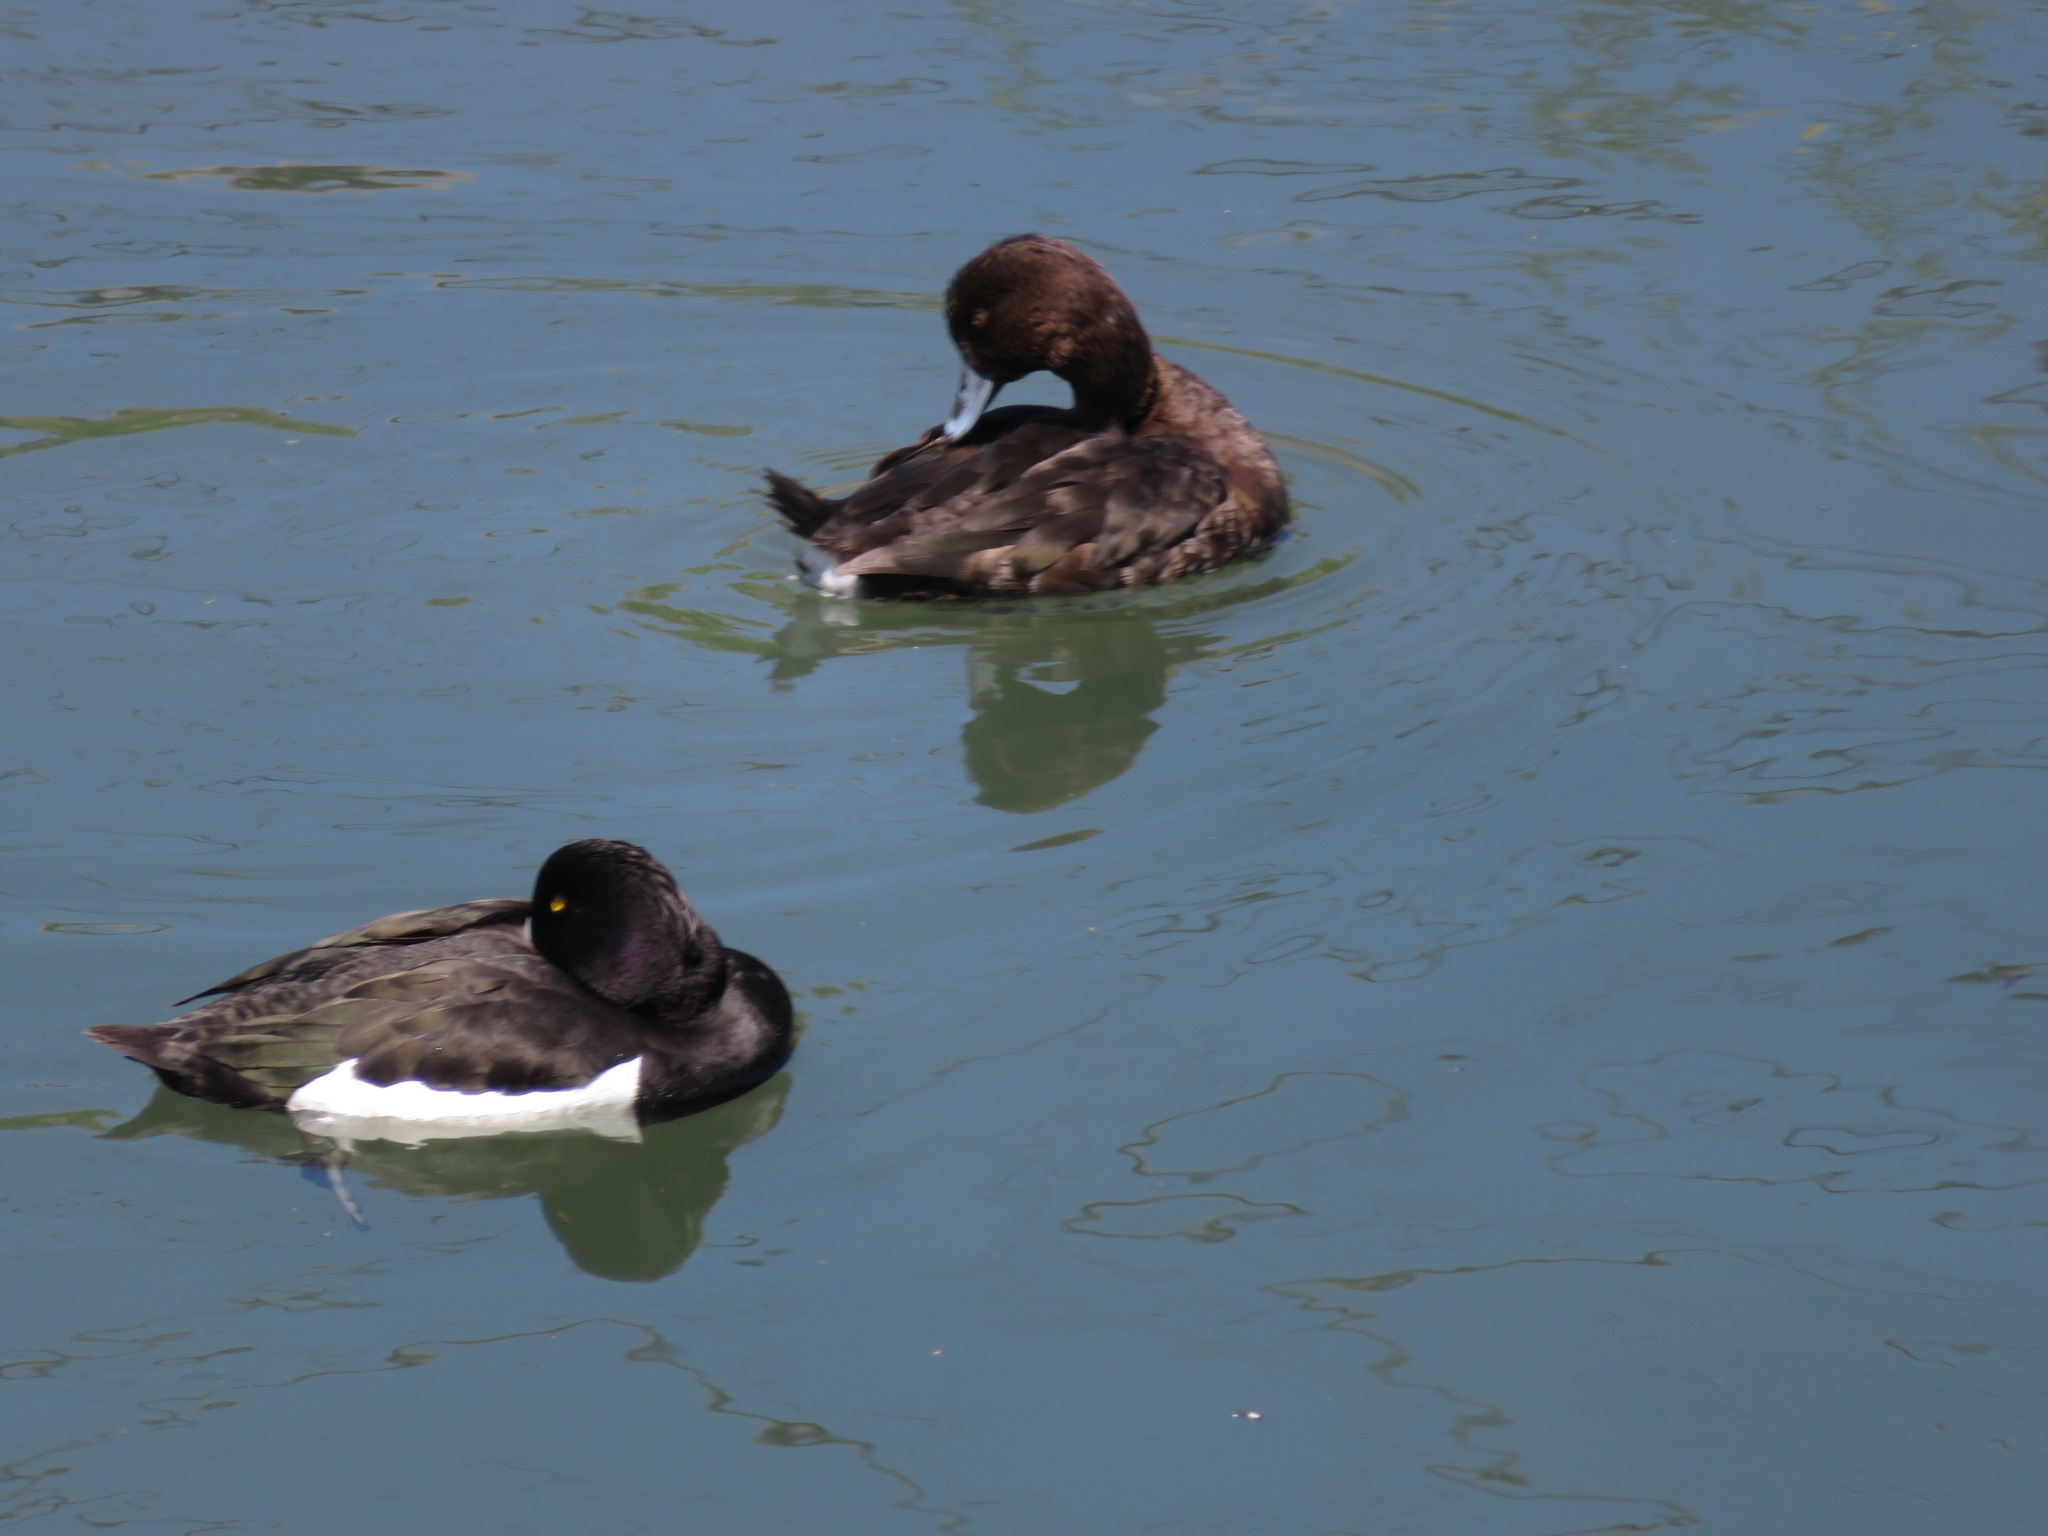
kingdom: Animalia
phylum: Chordata
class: Aves
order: Anseriformes
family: Anatidae
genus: Aythya
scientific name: Aythya fuligula
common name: Tufted duck
